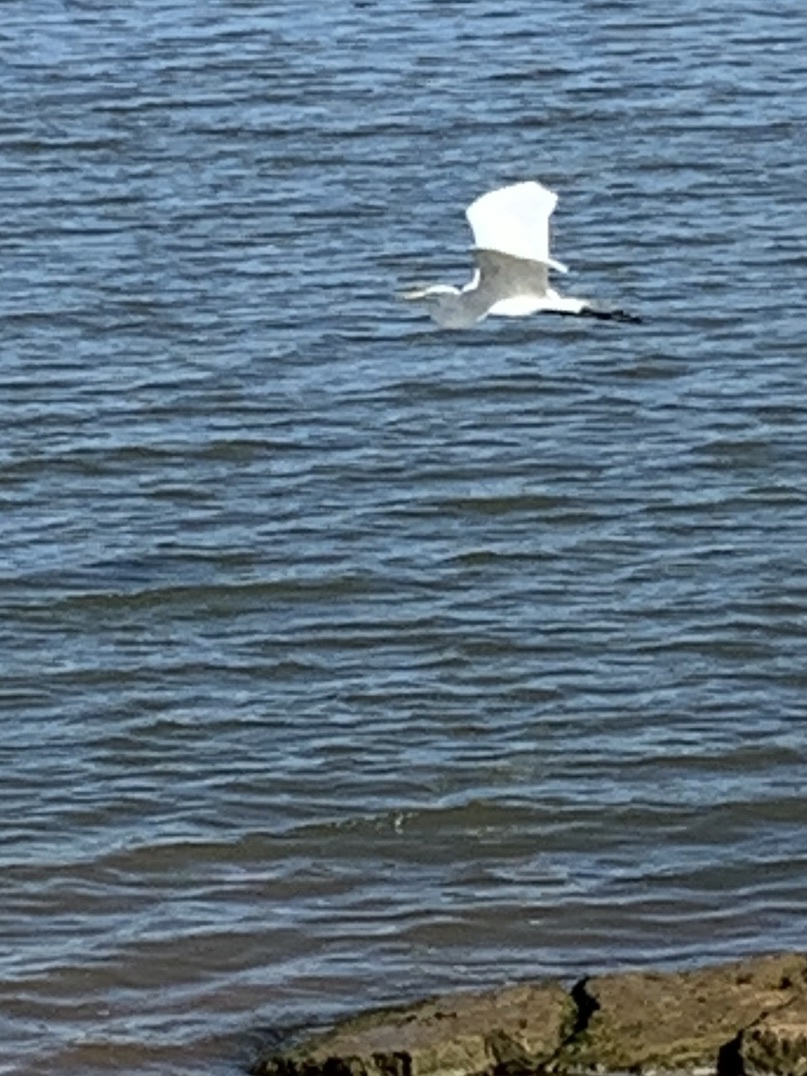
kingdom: Animalia
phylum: Chordata
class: Aves
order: Pelecaniformes
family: Ardeidae
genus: Ardea
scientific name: Ardea alba
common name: Great egret
